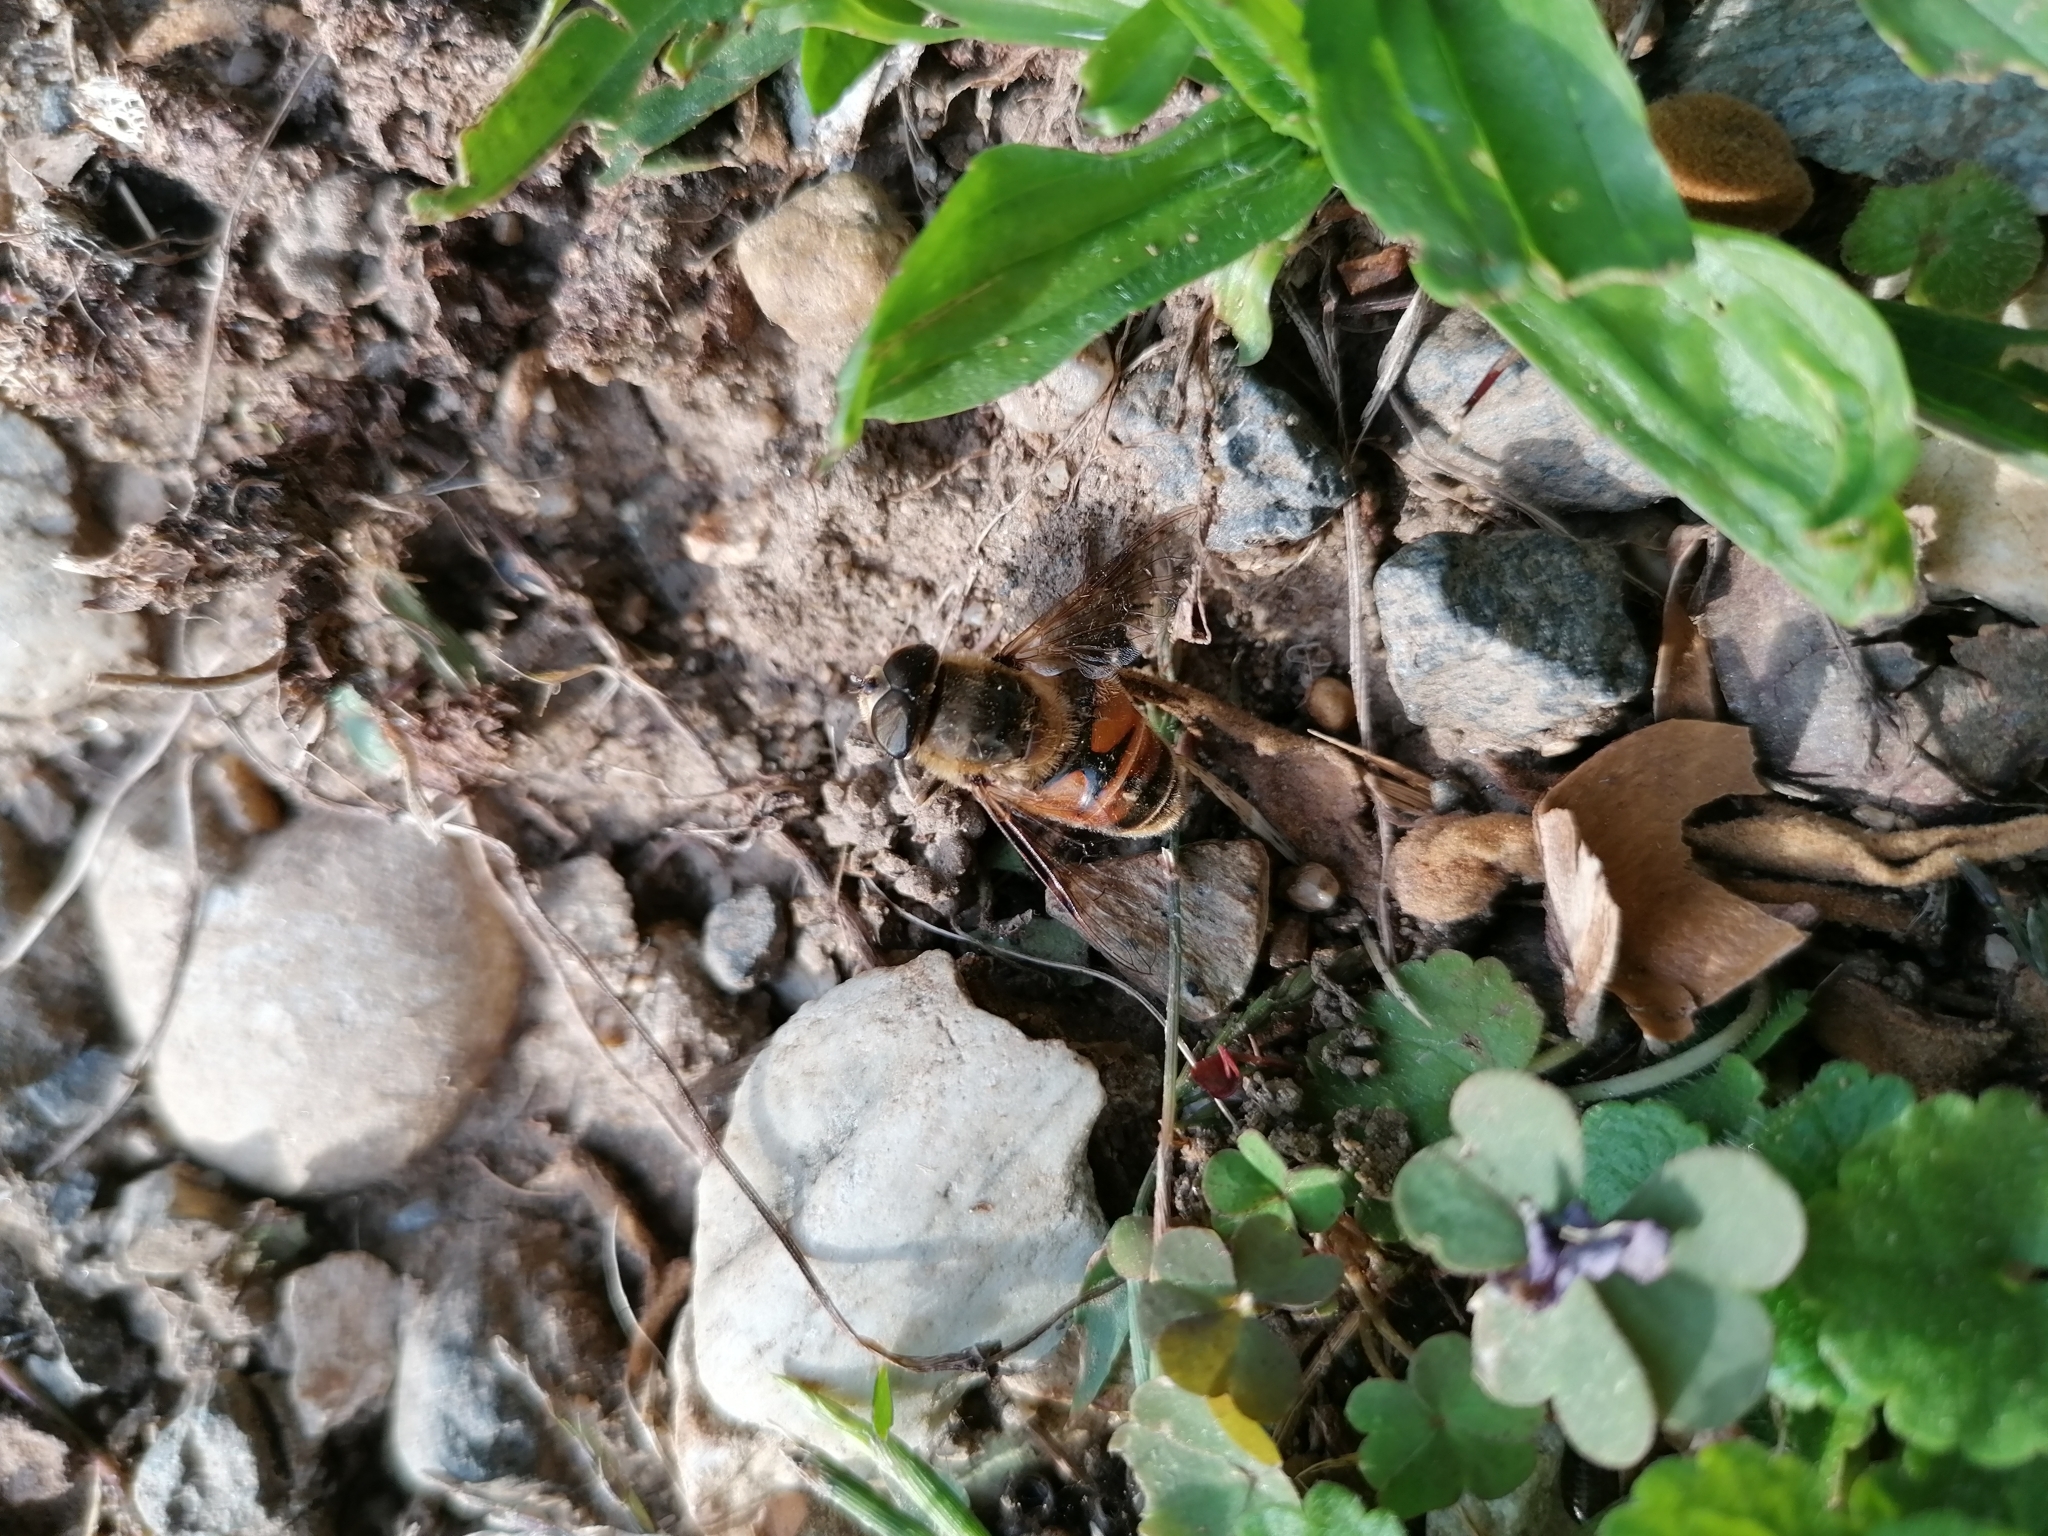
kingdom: Animalia
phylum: Arthropoda
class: Insecta
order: Diptera
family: Syrphidae
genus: Eristalis
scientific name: Eristalis tenax
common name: Drone fly
